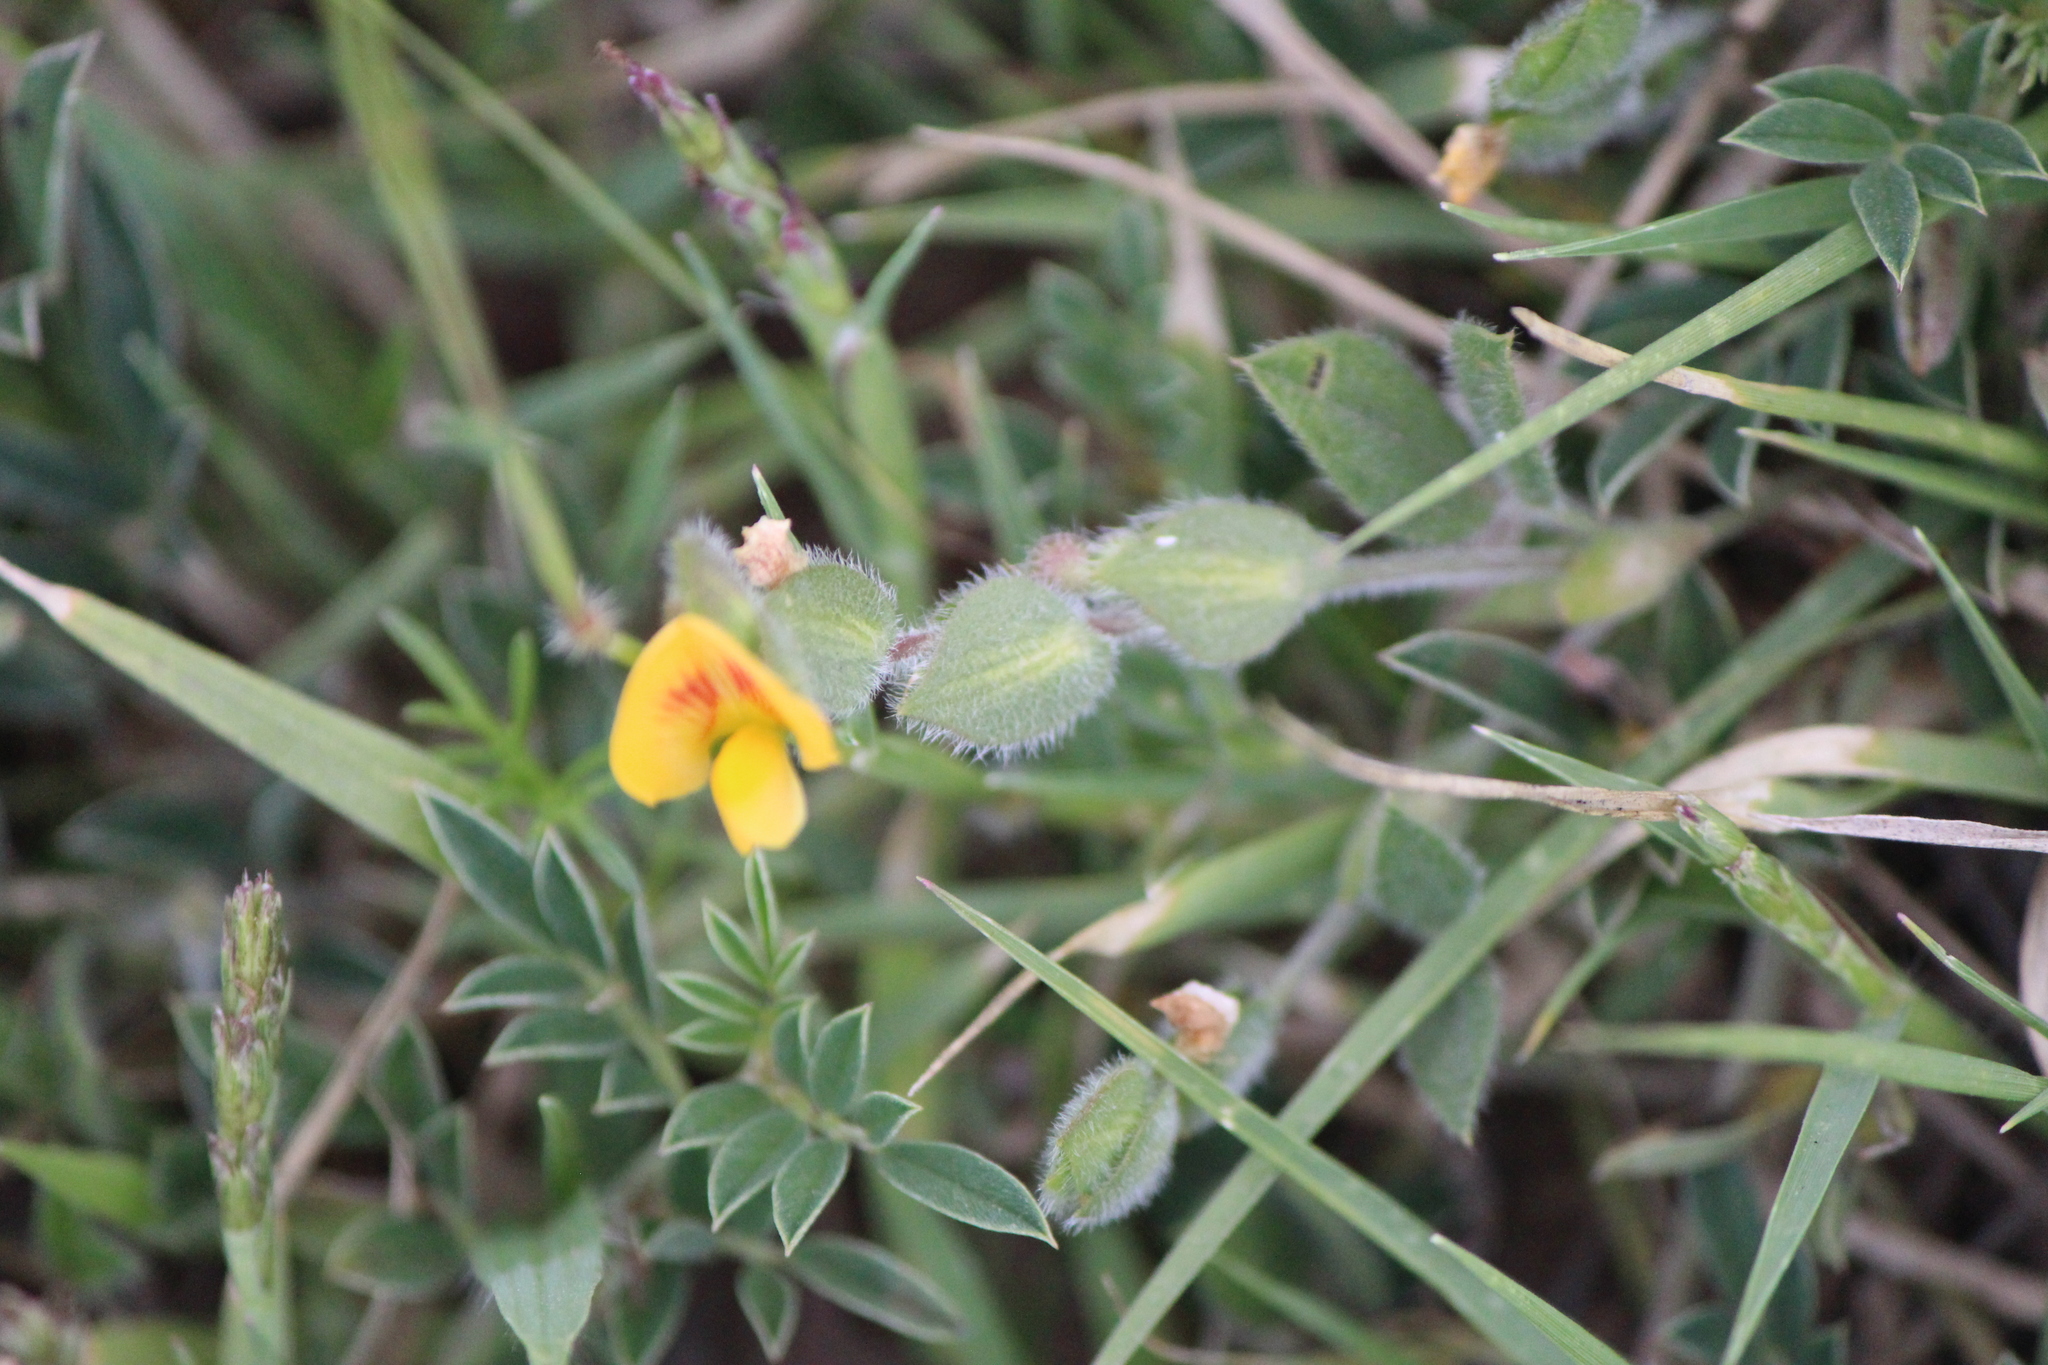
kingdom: Plantae
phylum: Tracheophyta
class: Magnoliopsida
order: Fabales
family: Fabaceae
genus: Zornia
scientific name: Zornia thymifolia
